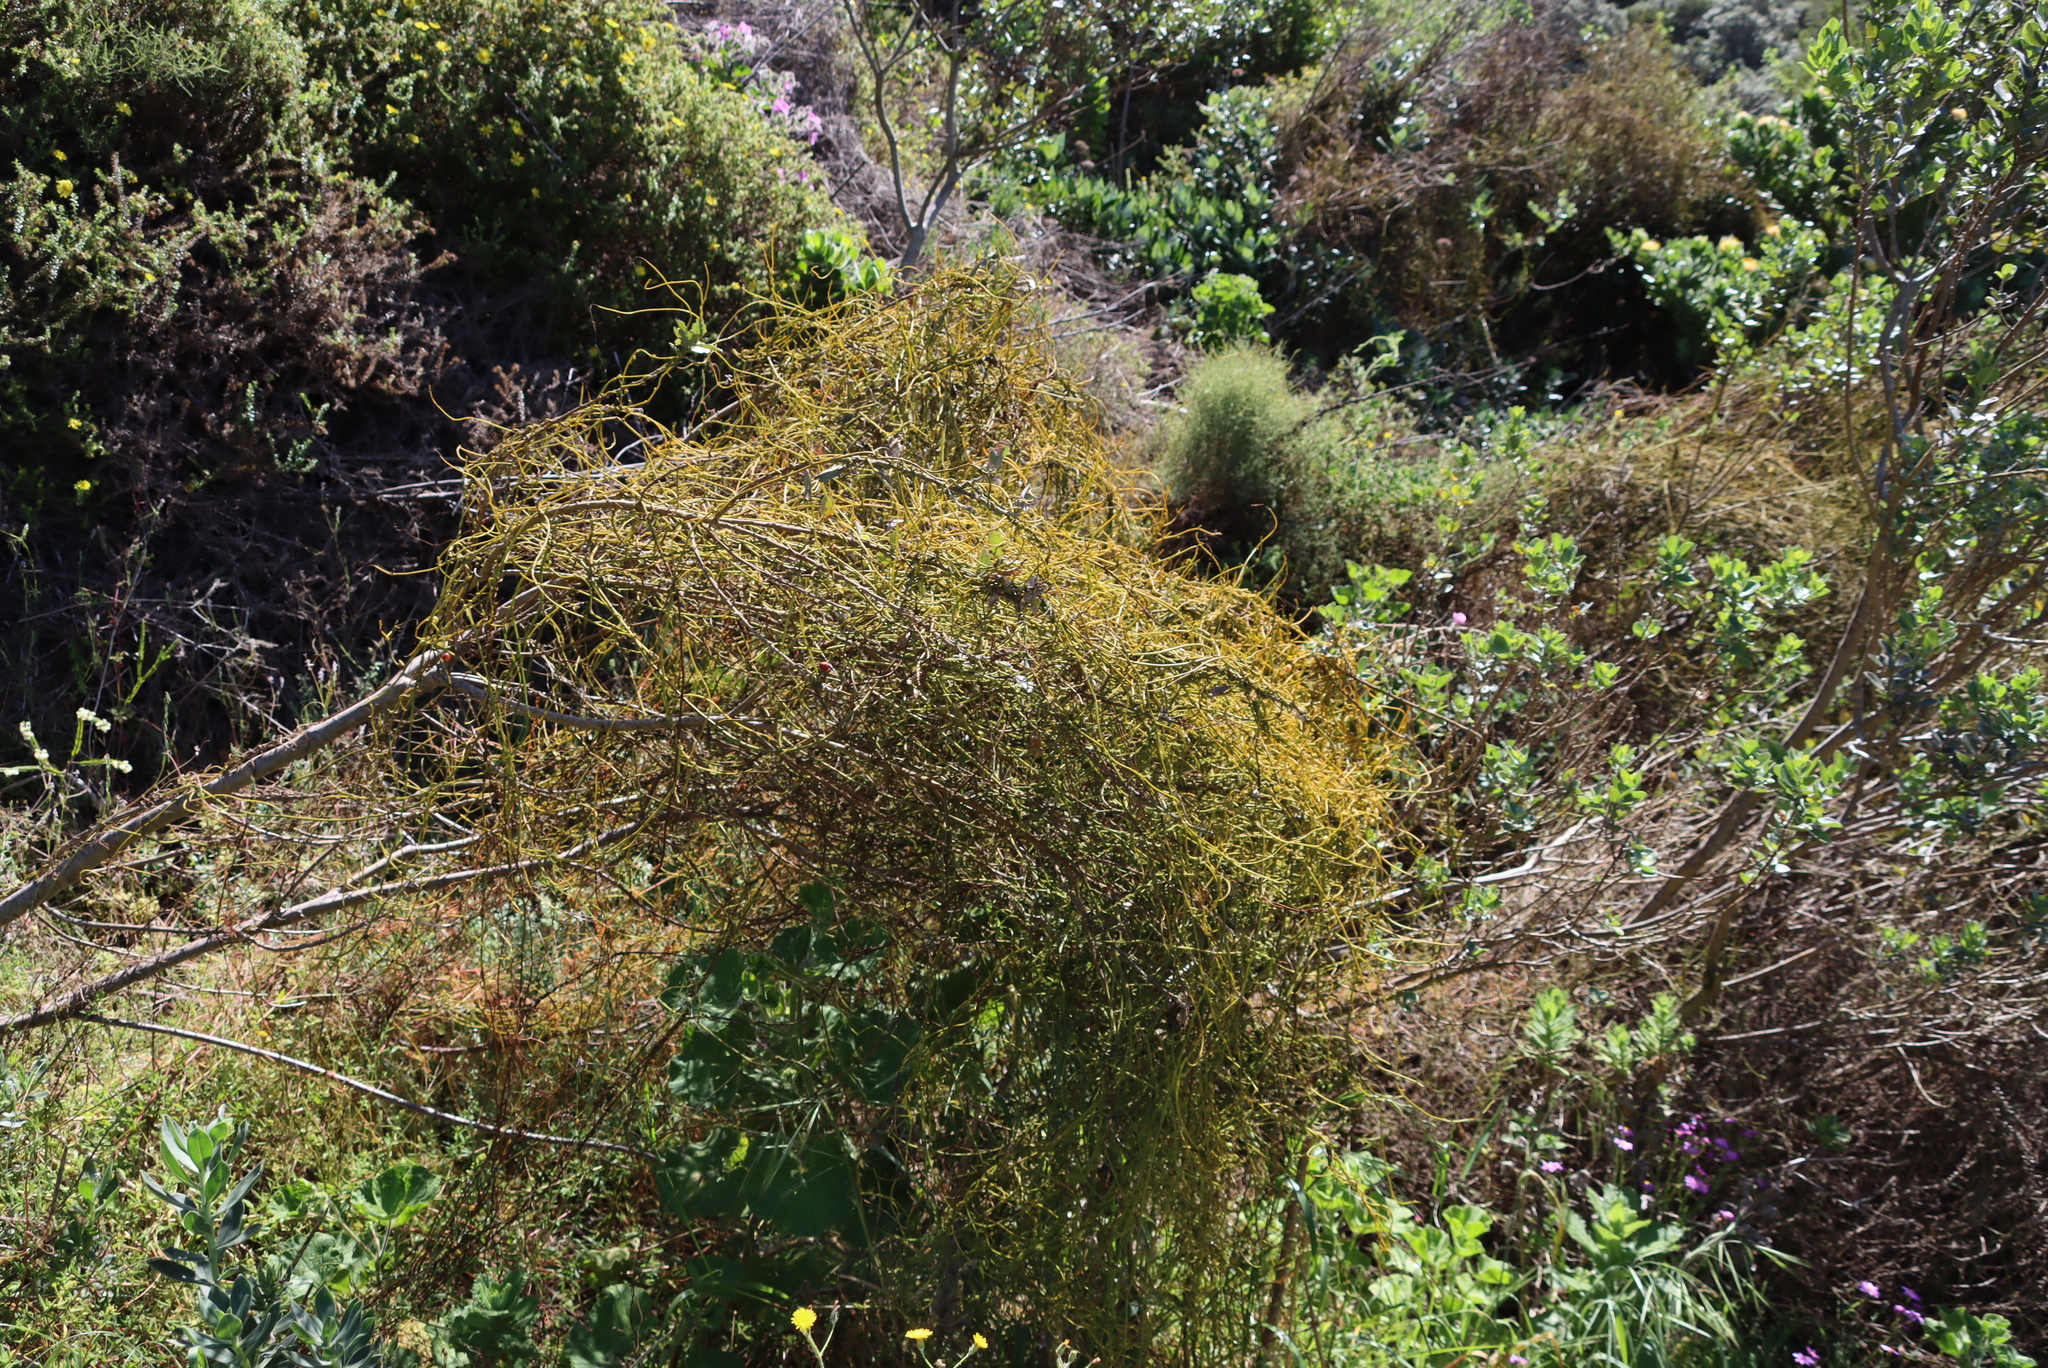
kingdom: Plantae
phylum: Tracheophyta
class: Magnoliopsida
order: Laurales
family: Lauraceae
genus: Cassytha
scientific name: Cassytha ciliolata
